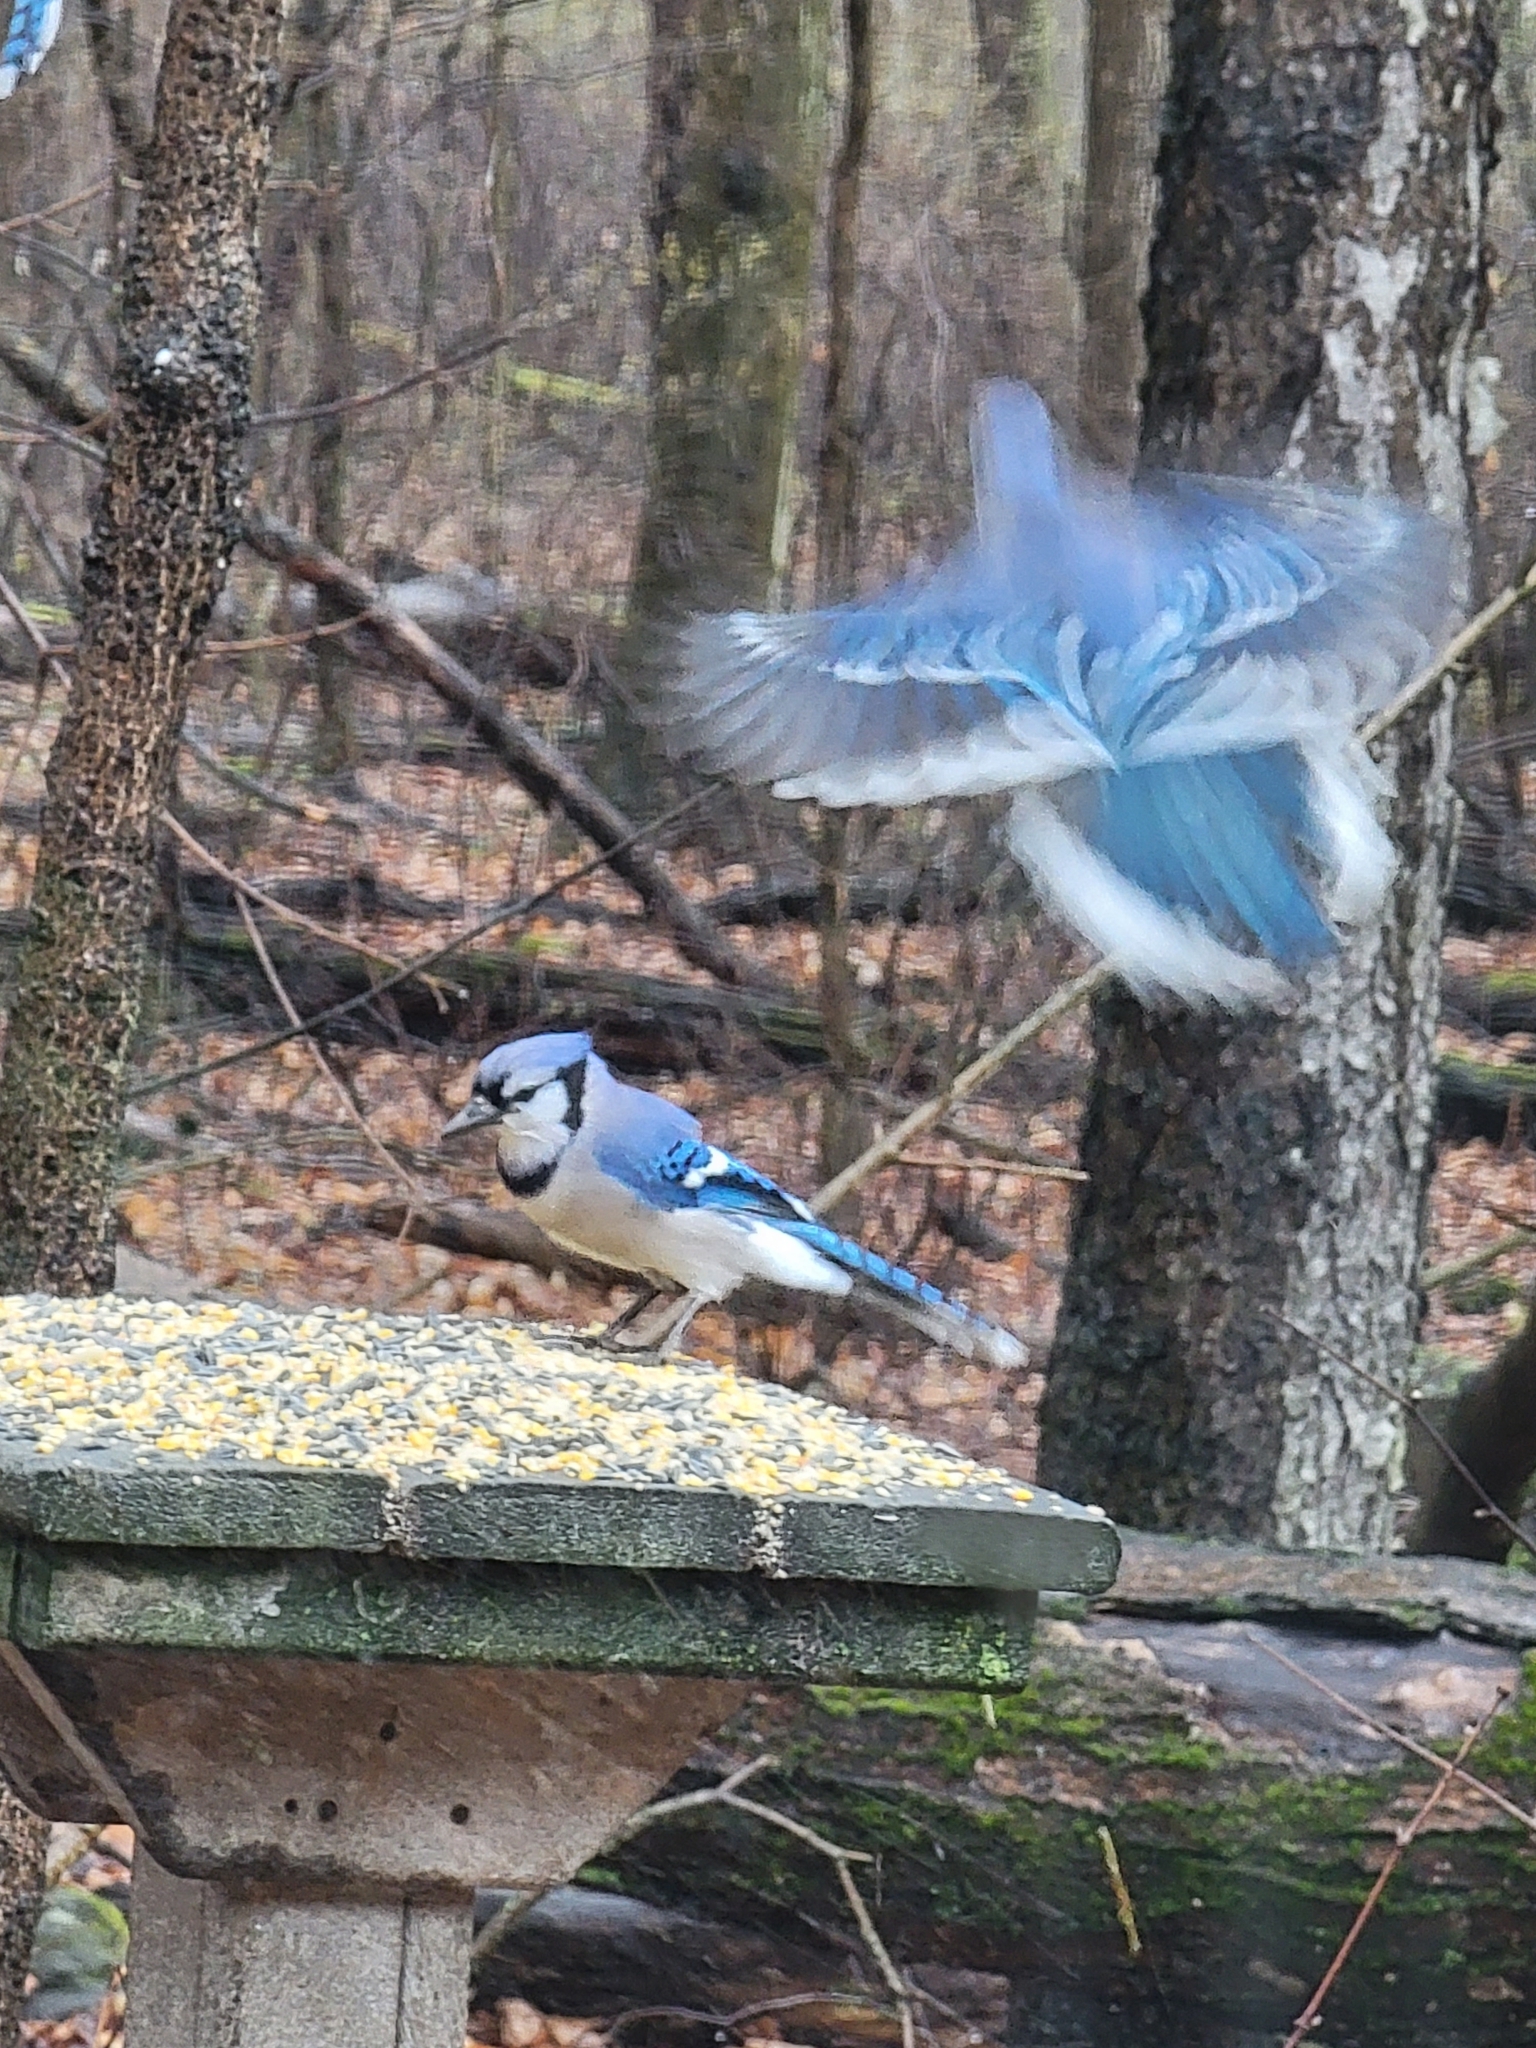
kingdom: Animalia
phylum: Chordata
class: Aves
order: Passeriformes
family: Corvidae
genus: Cyanocitta
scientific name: Cyanocitta cristata
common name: Blue jay
